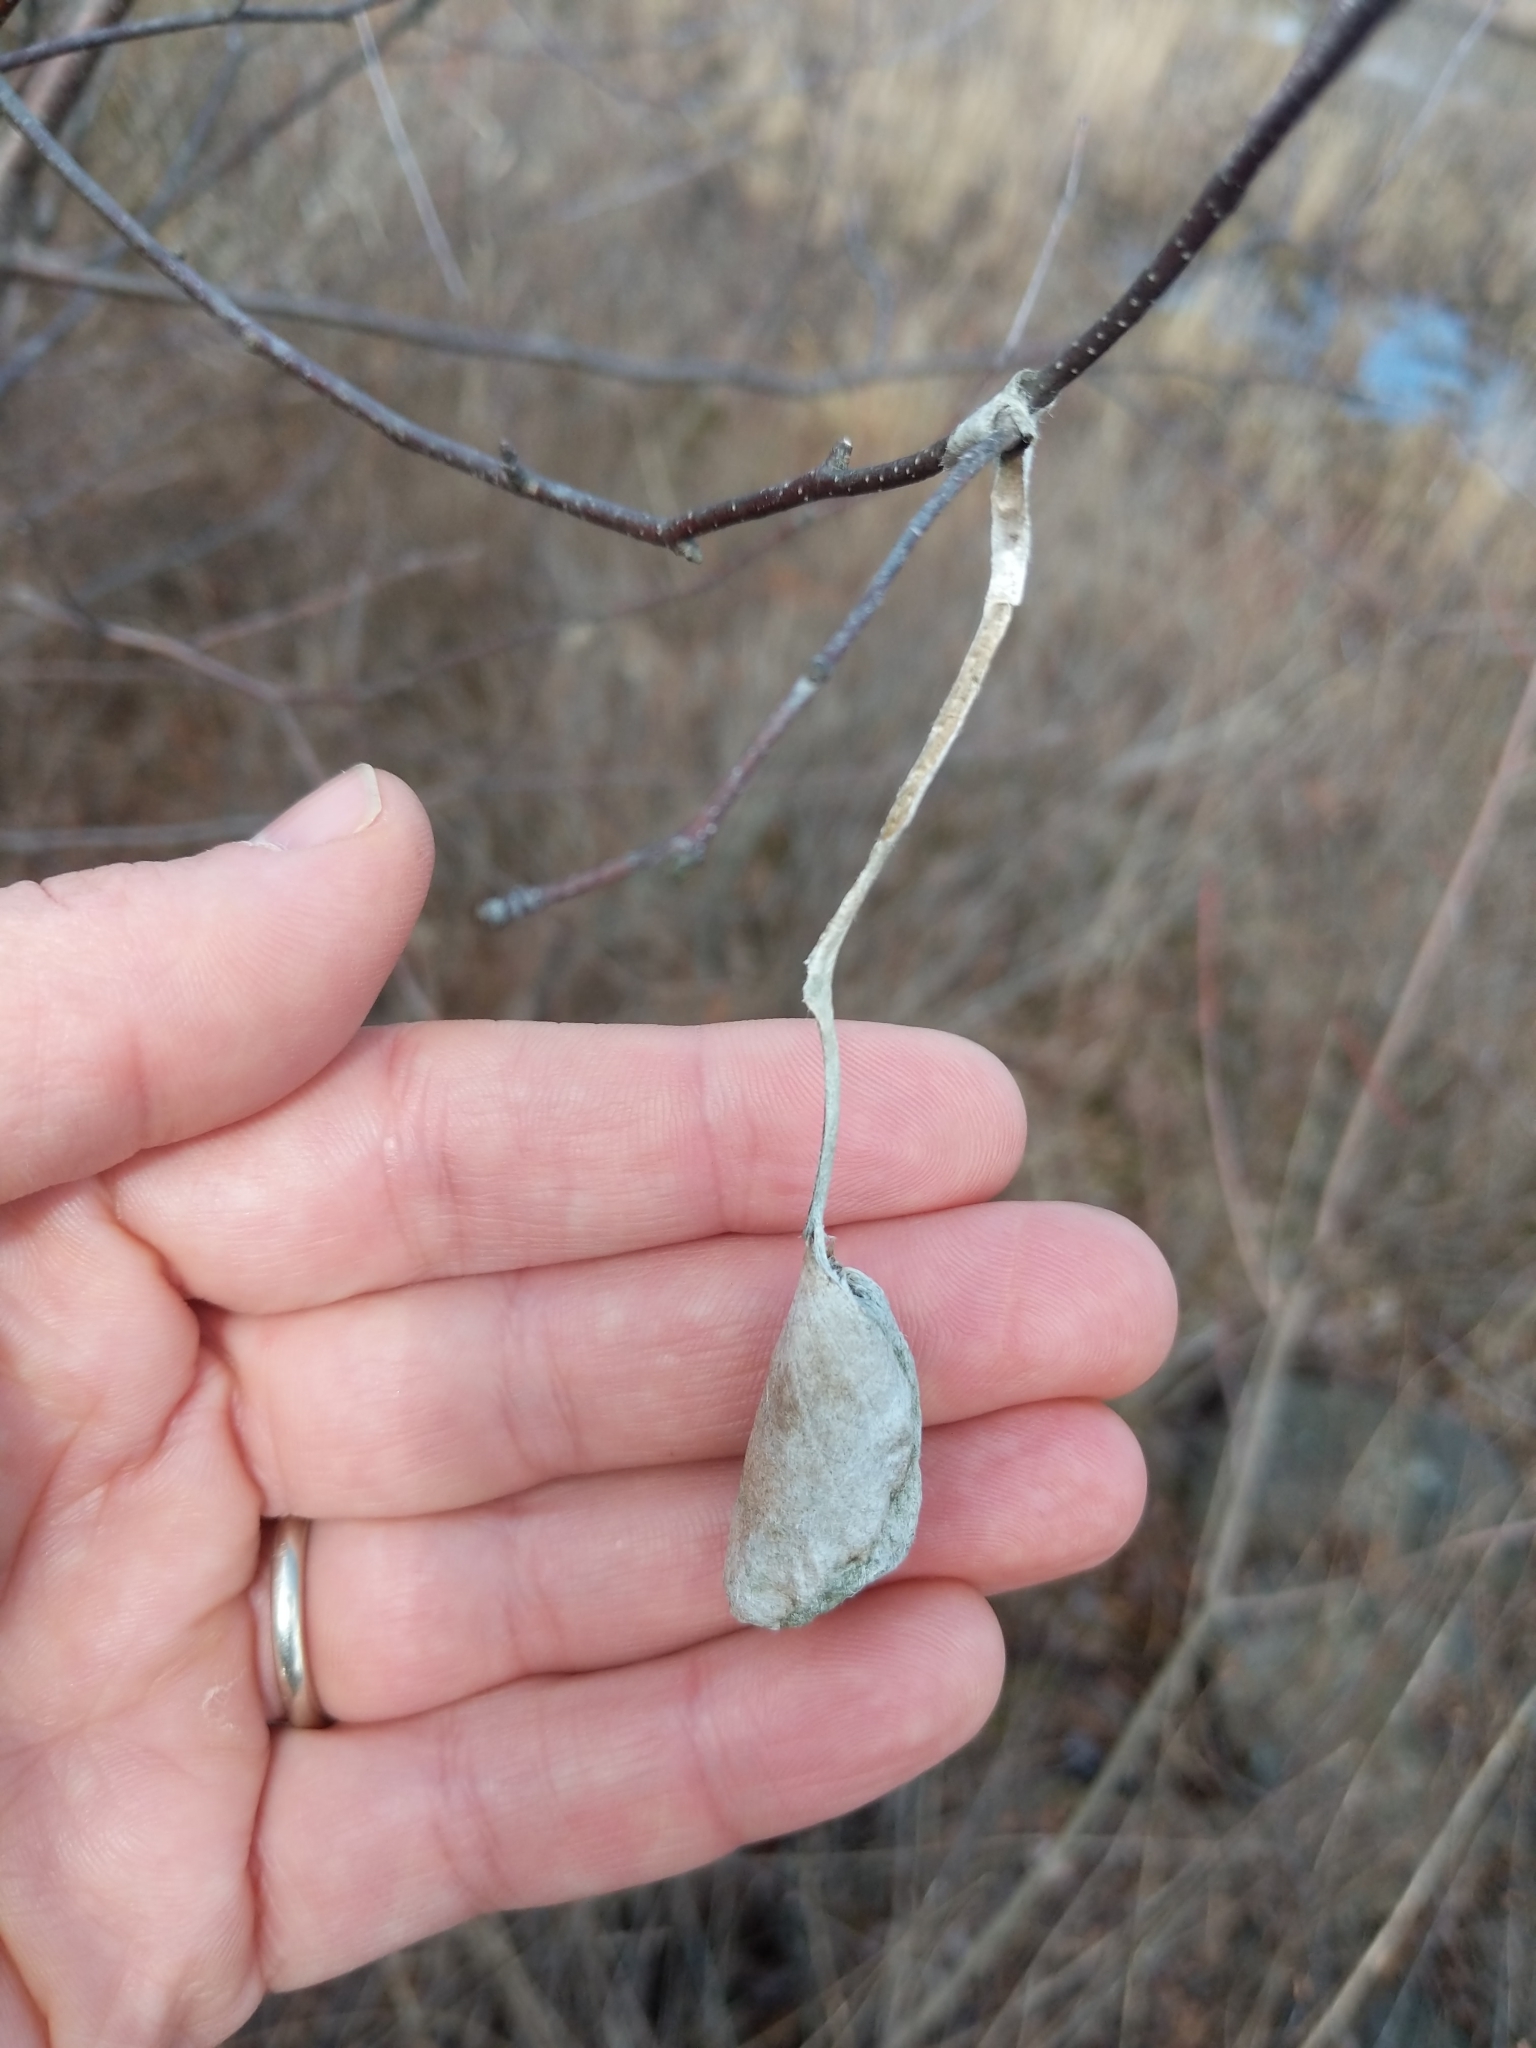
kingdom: Animalia
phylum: Arthropoda
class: Insecta
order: Lepidoptera
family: Saturniidae
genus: Callosamia
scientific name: Callosamia promethea
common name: Promethea silkmoth
